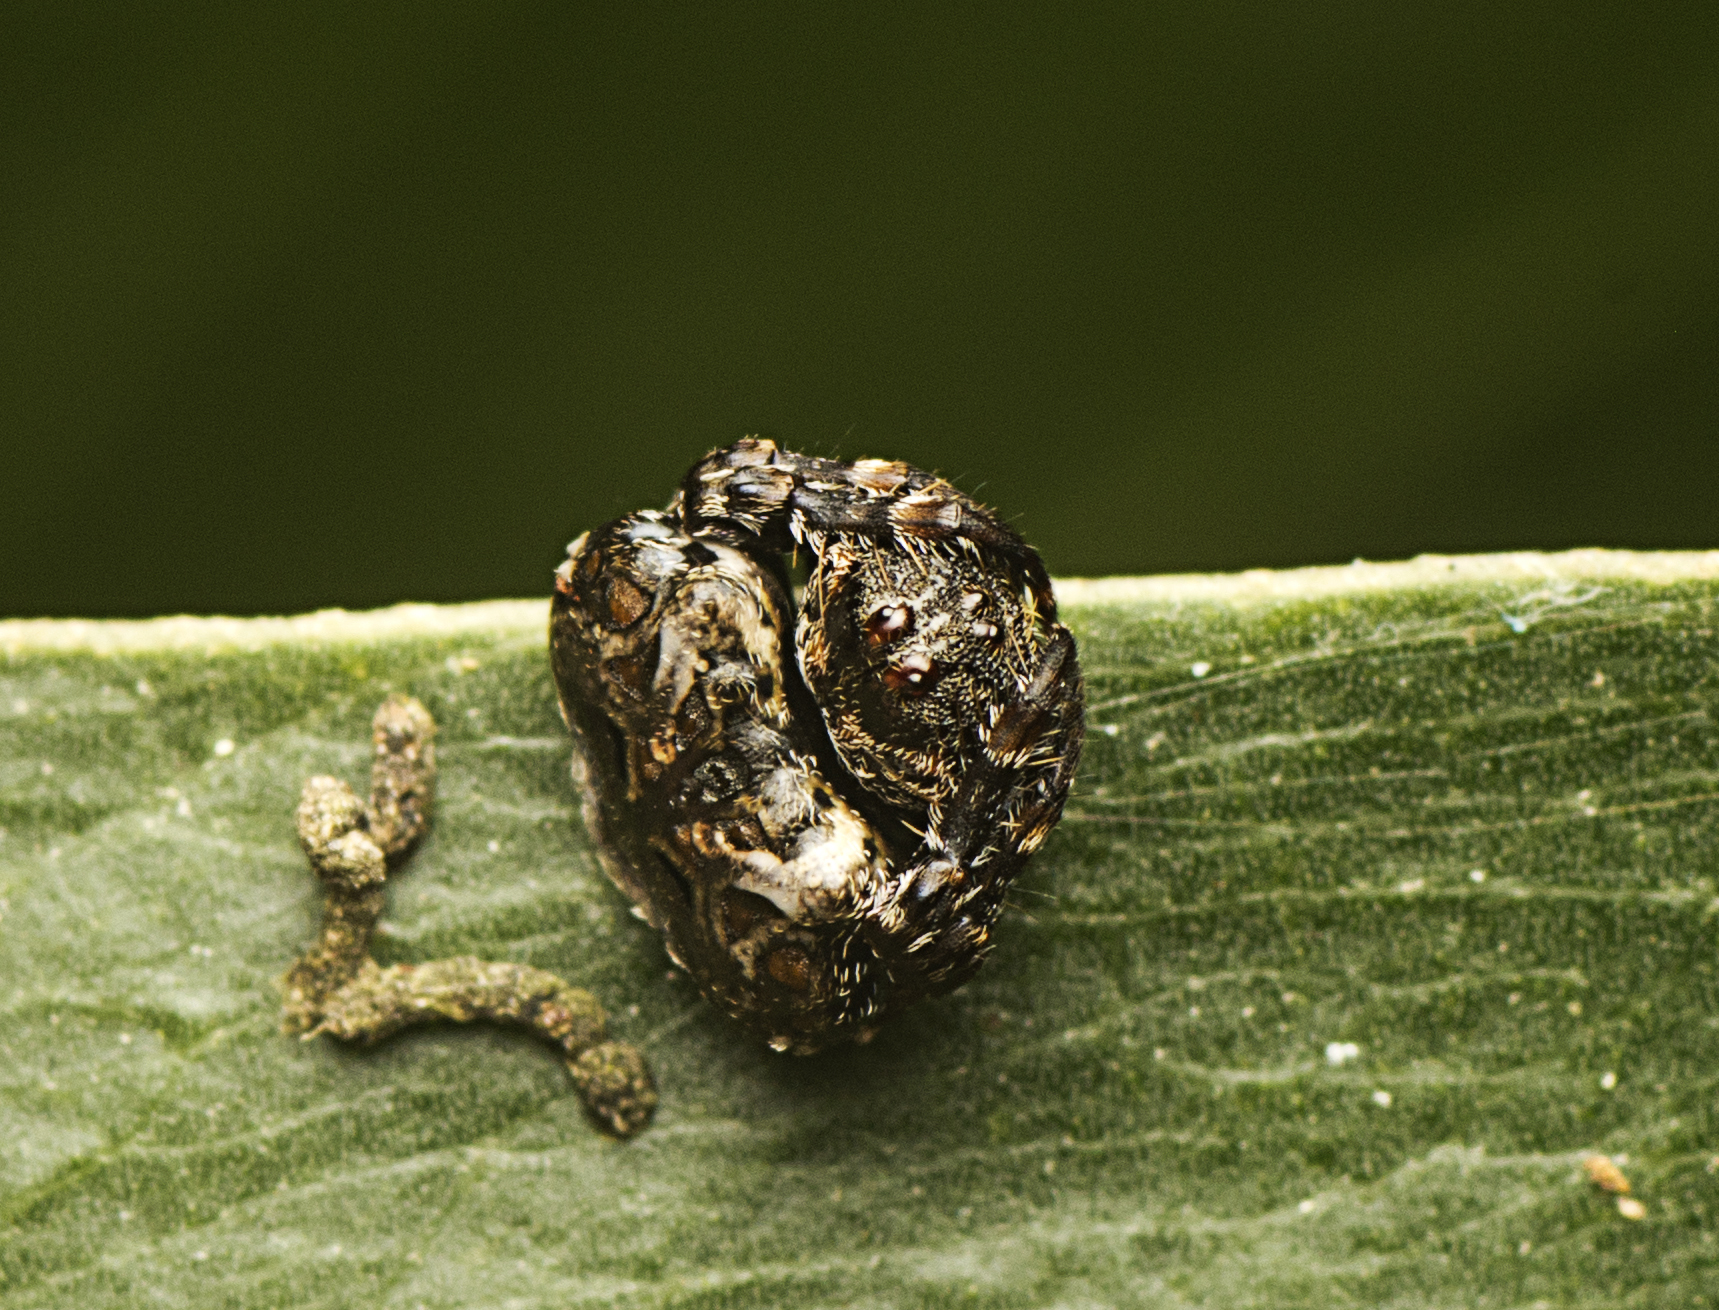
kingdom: Animalia
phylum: Arthropoda
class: Arachnida
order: Araneae
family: Arkyidae
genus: Arkys
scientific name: Arkys curtulus
